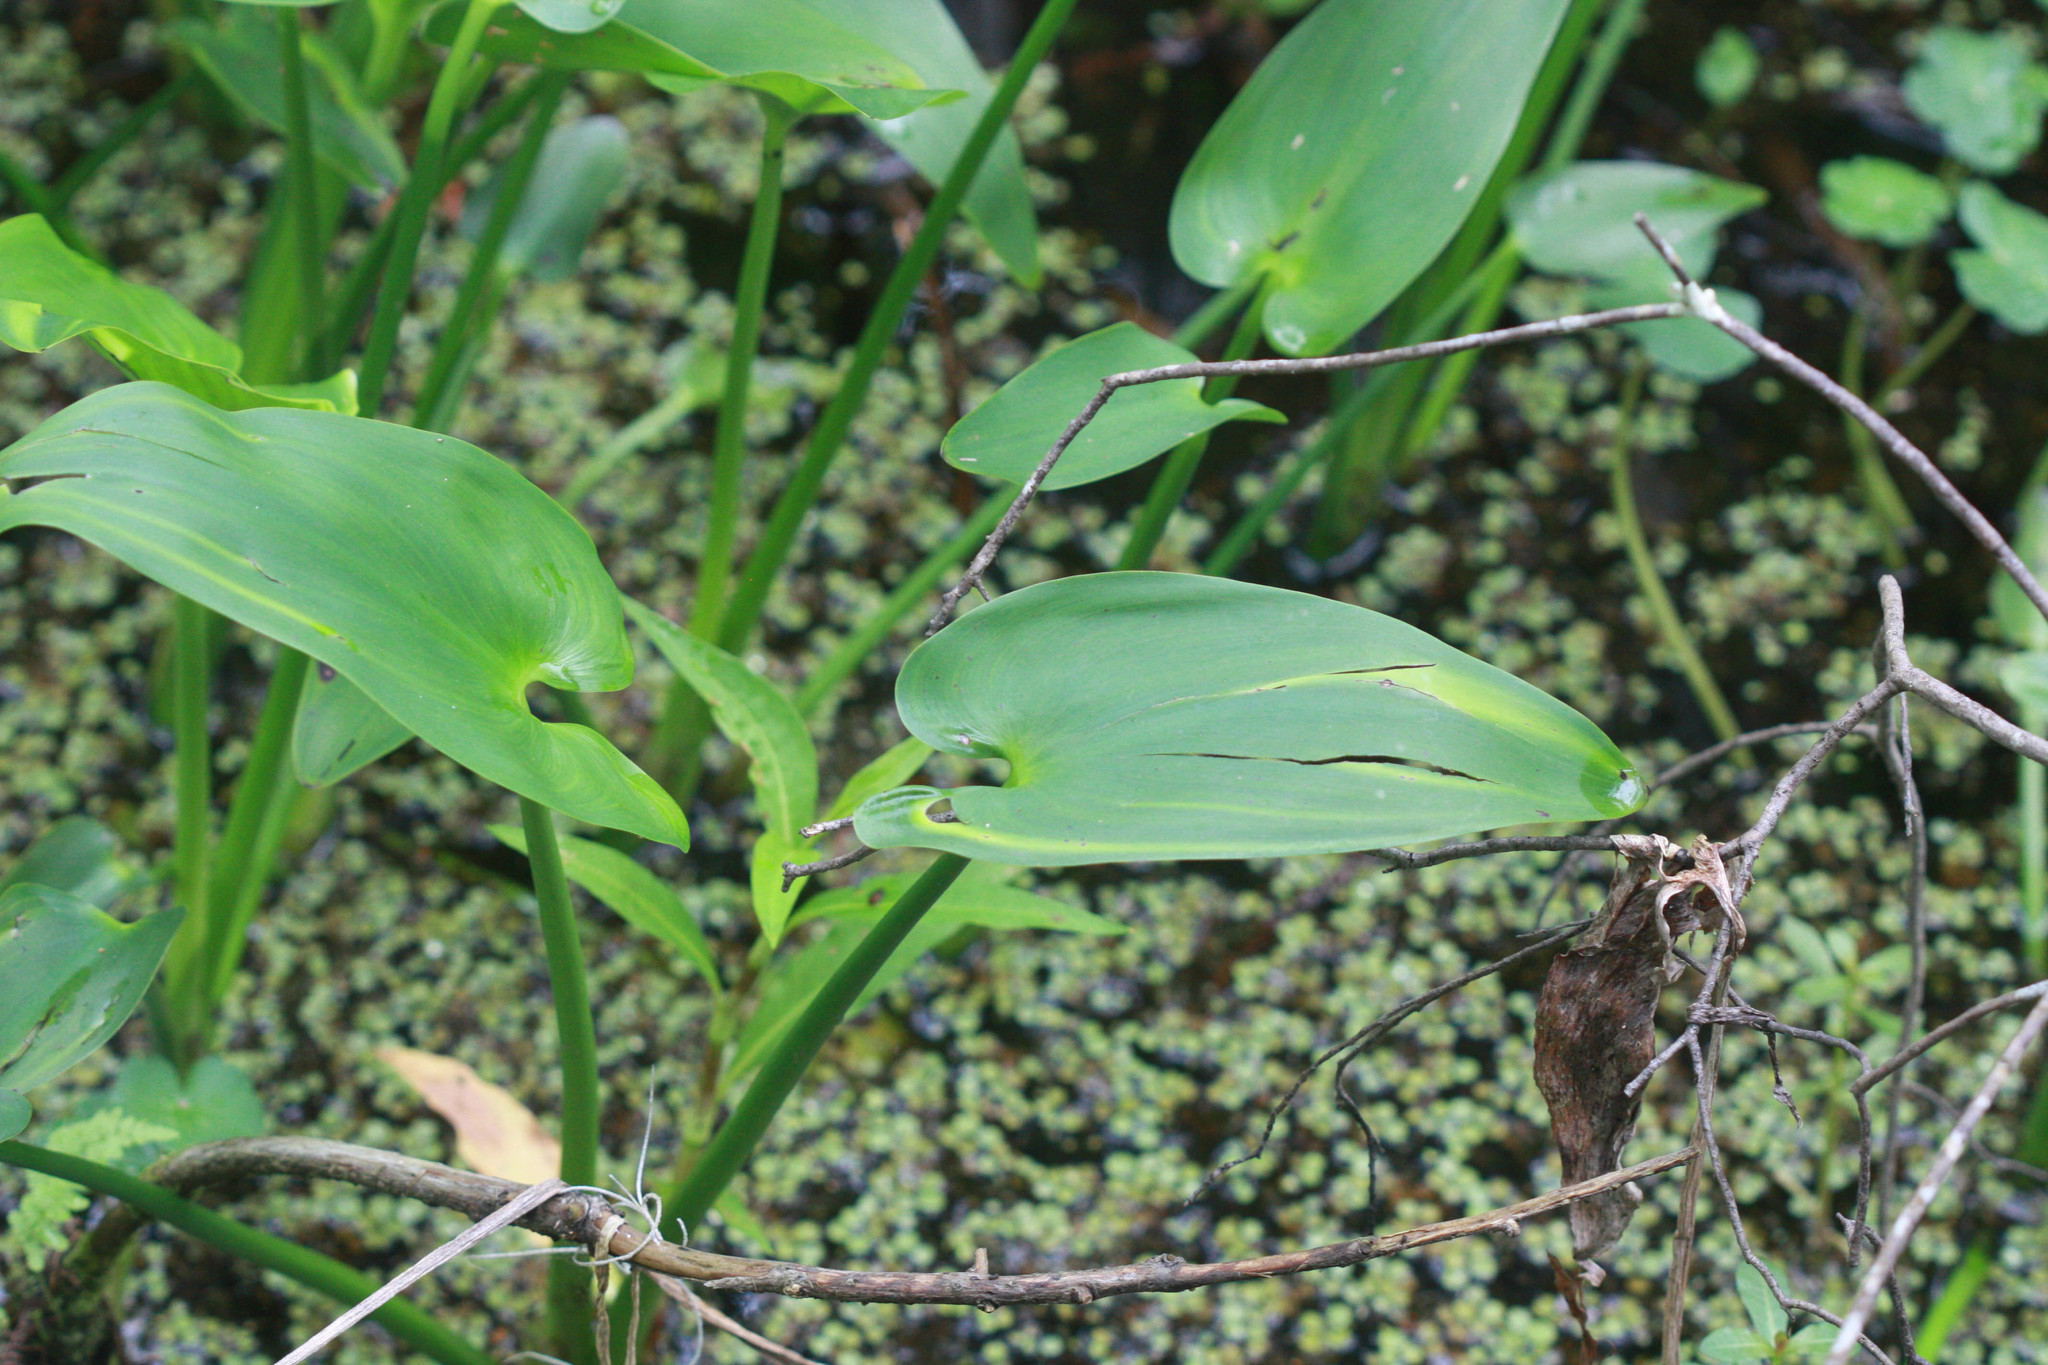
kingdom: Plantae
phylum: Tracheophyta
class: Liliopsida
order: Commelinales
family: Pontederiaceae
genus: Pontederia
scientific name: Pontederia cordata
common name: Pickerelweed
